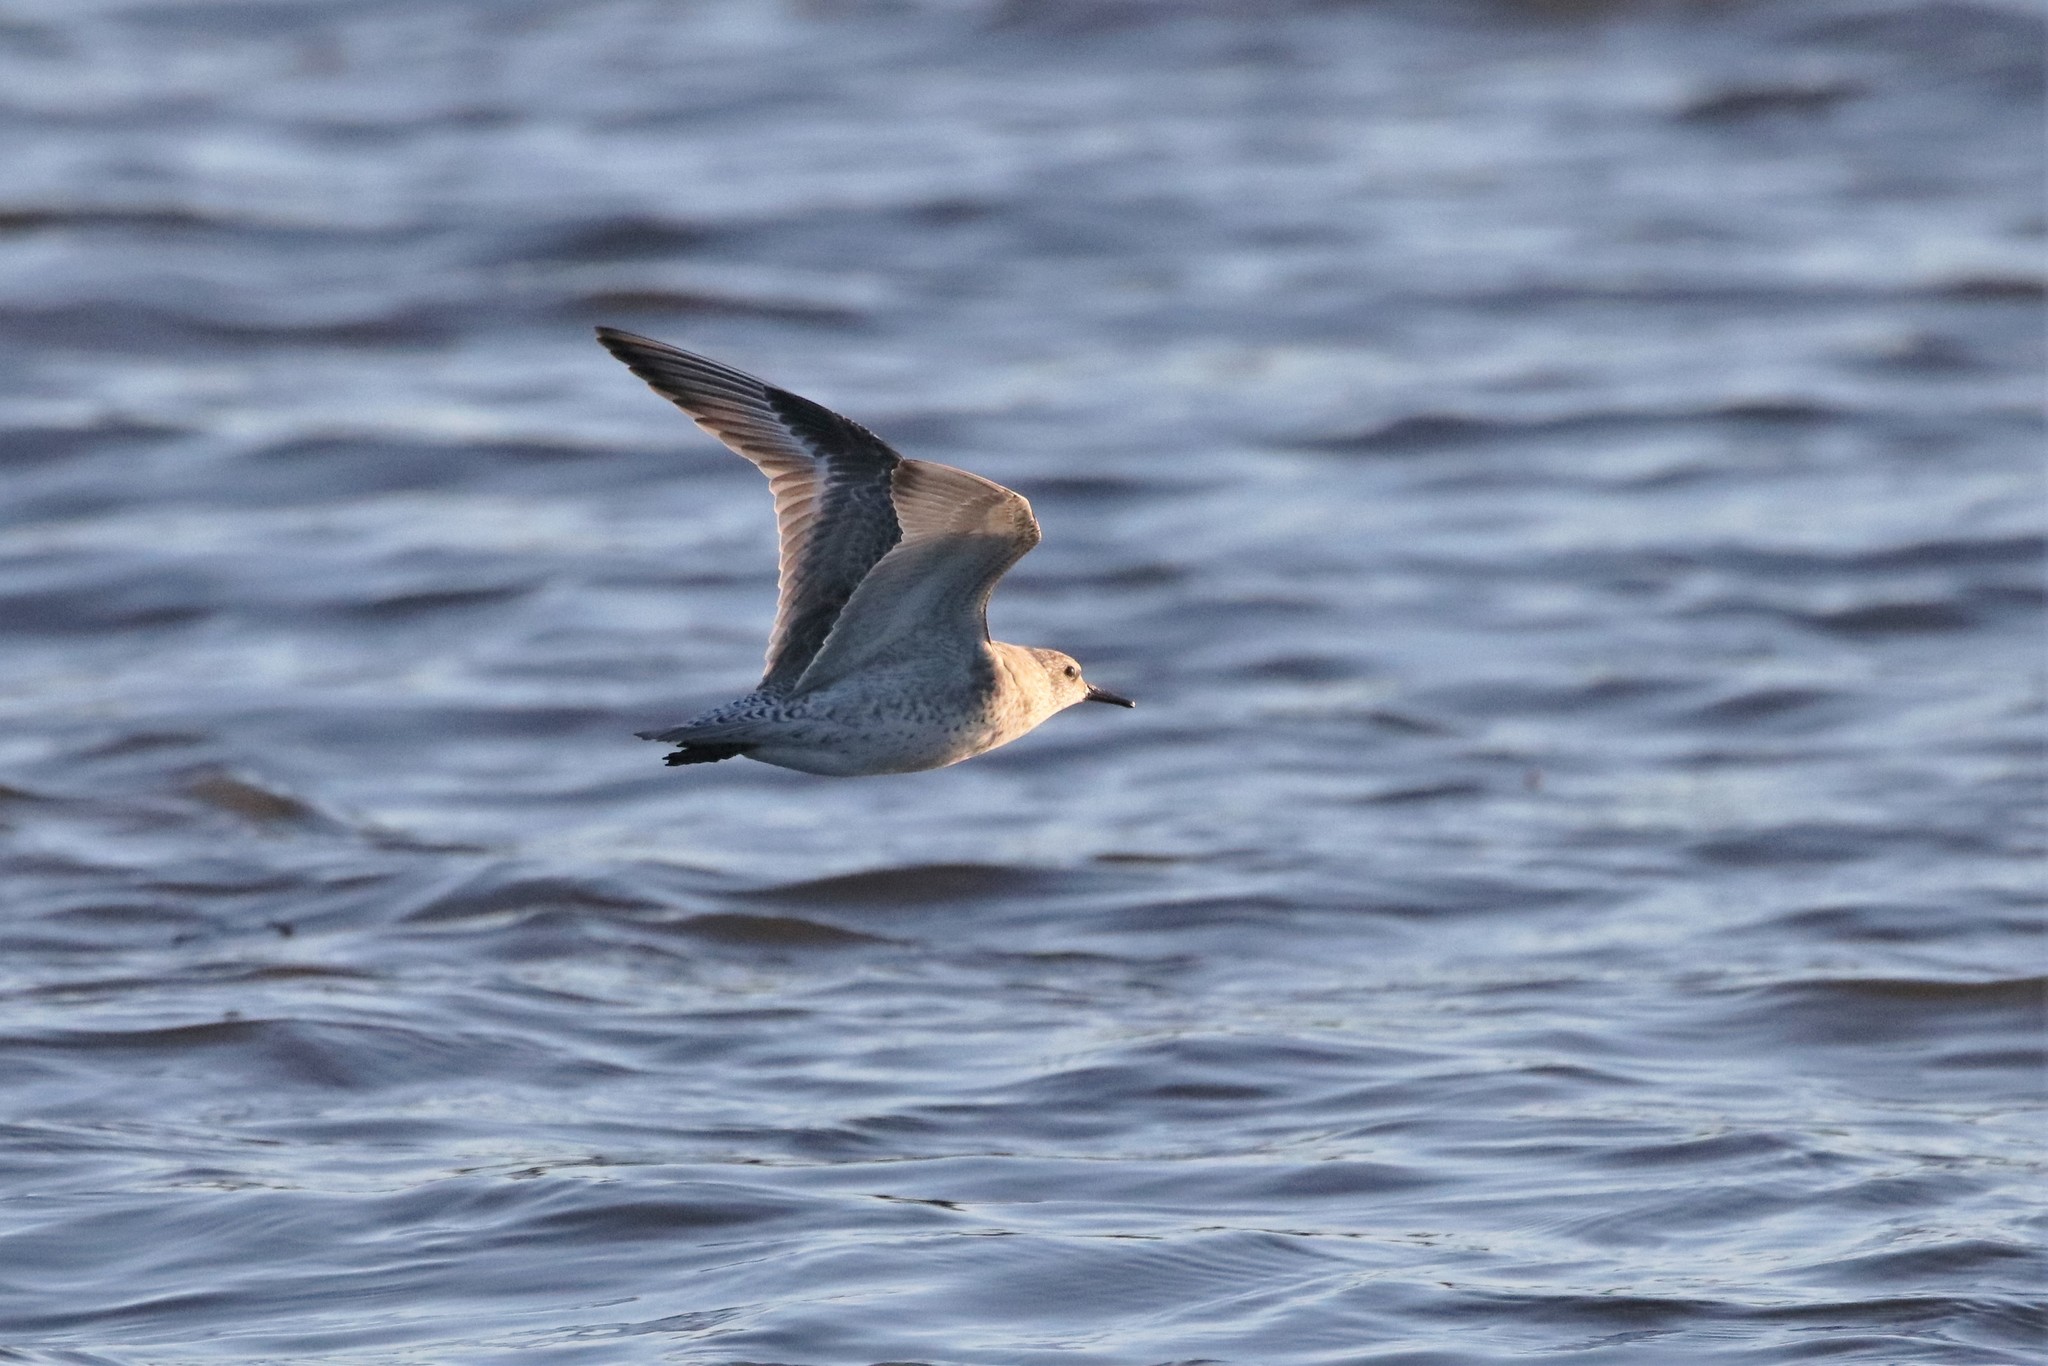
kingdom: Animalia
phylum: Chordata
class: Aves
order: Charadriiformes
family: Scolopacidae
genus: Calidris
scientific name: Calidris canutus
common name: Red knot
